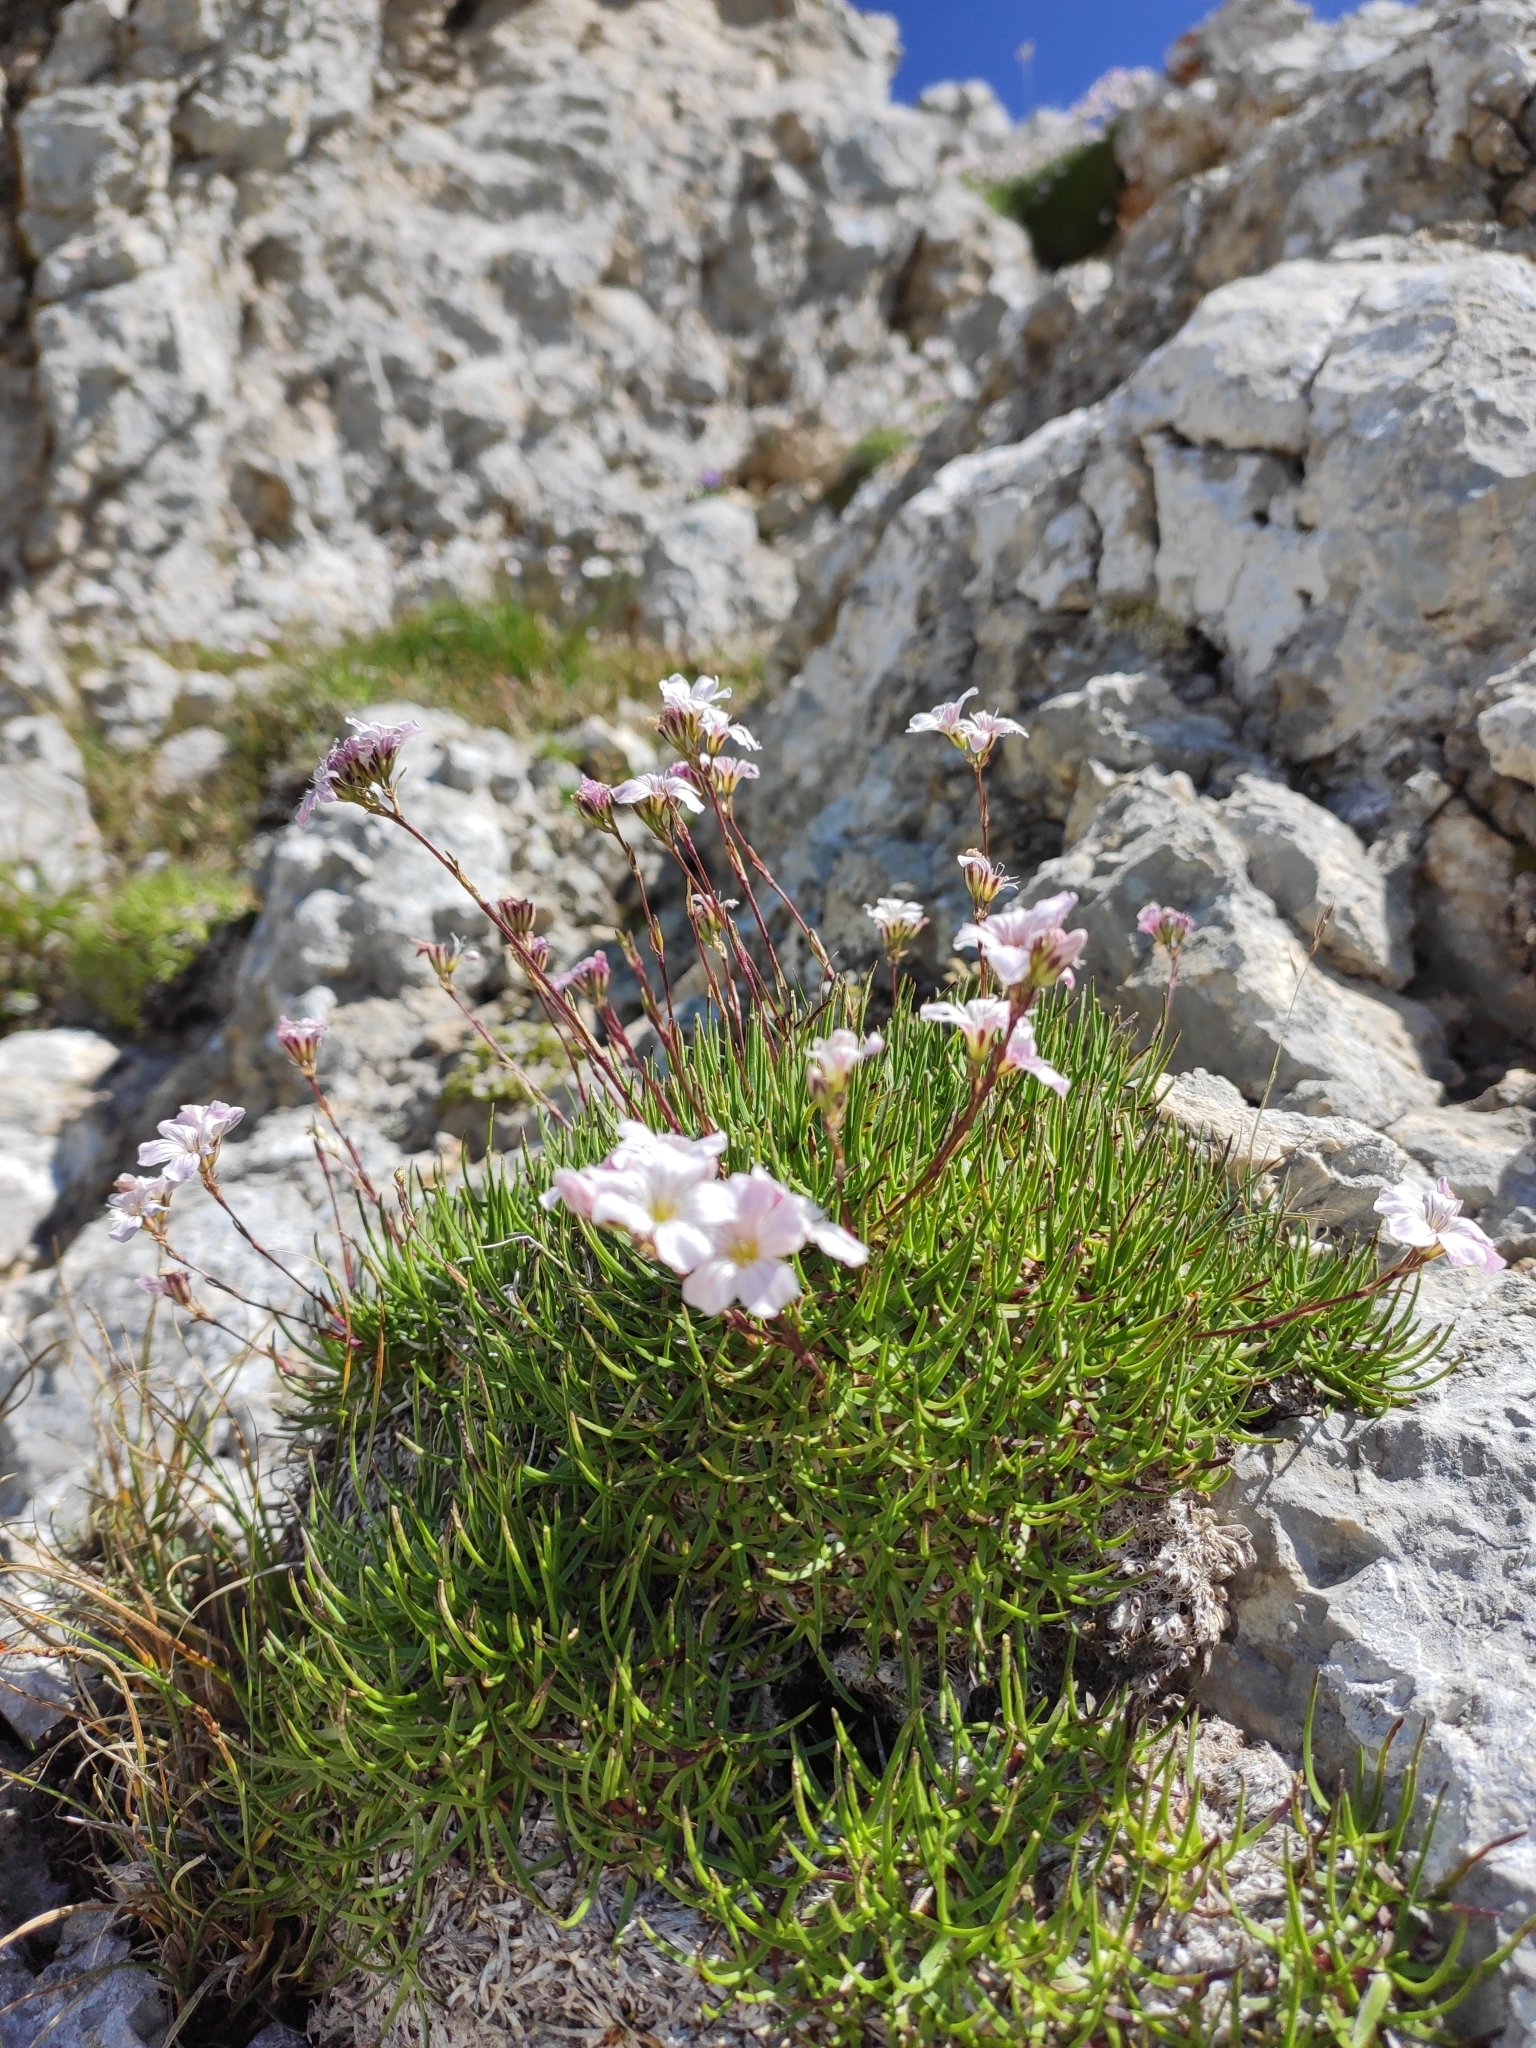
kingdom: Plantae
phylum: Tracheophyta
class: Magnoliopsida
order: Caryophyllales
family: Caryophyllaceae
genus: Gypsophila
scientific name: Gypsophila tenuifolia
